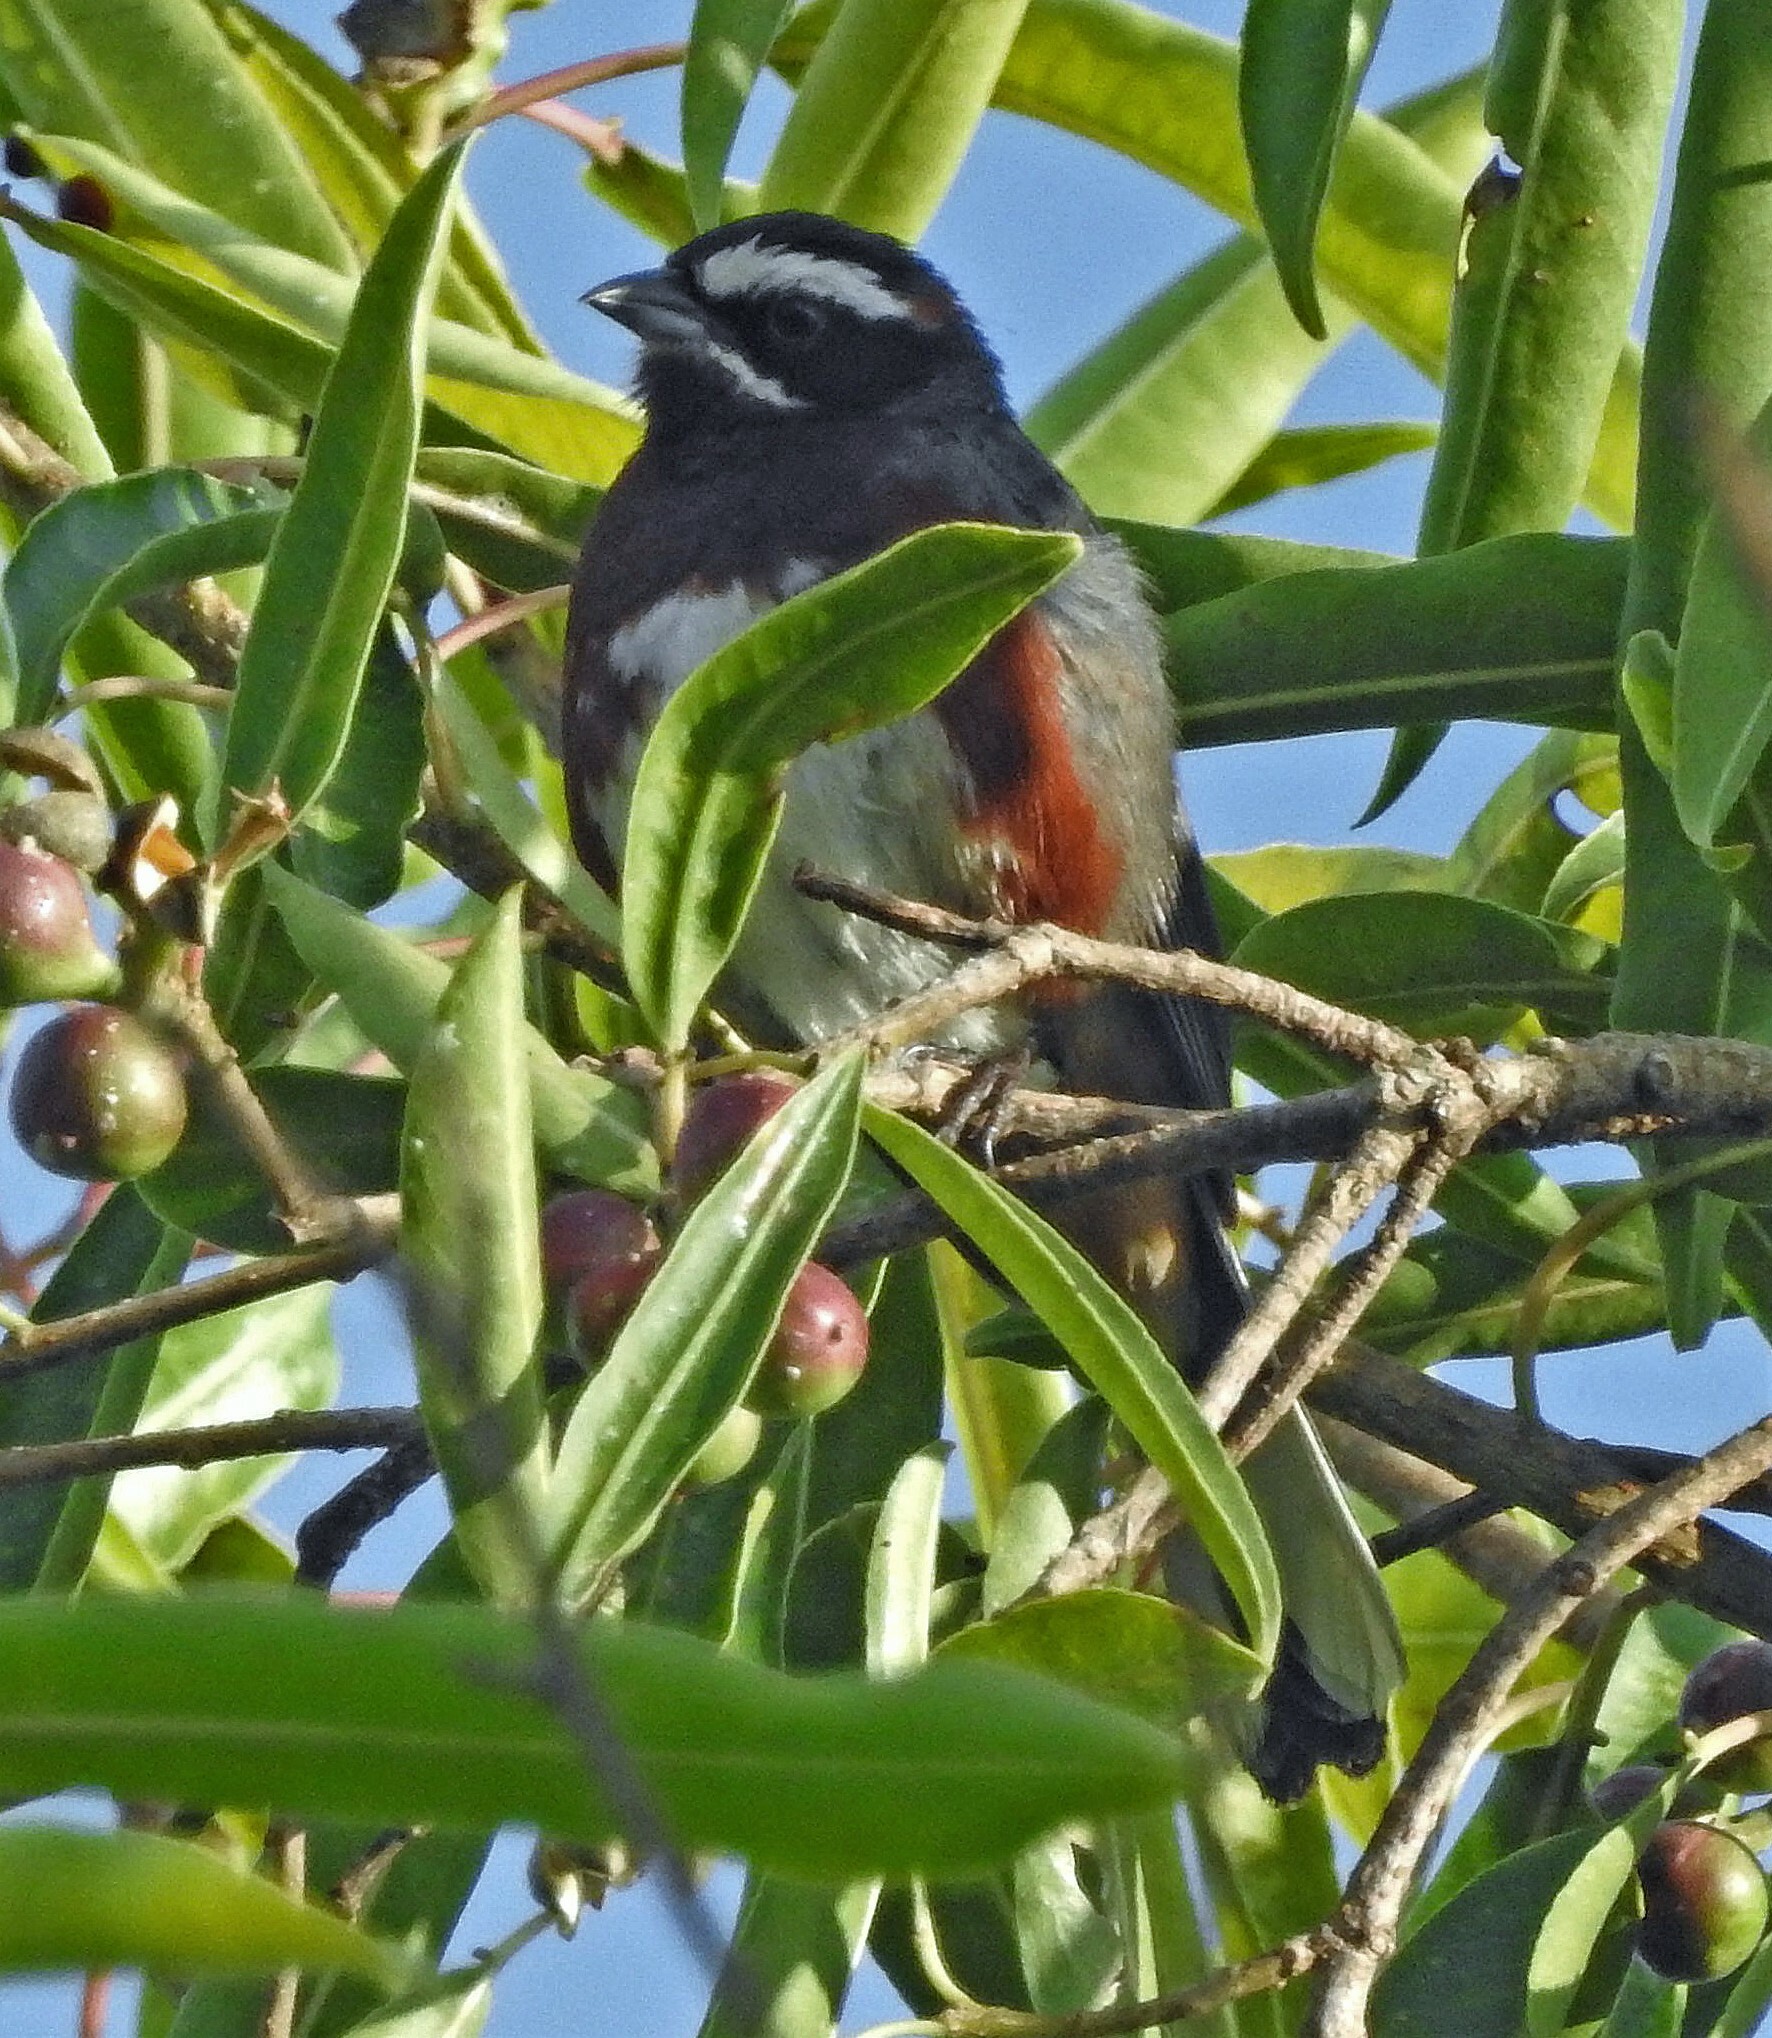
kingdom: Animalia
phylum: Chordata
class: Aves
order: Passeriformes
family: Thraupidae
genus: Poospiza
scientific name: Poospiza whitii
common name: Black-and-chestnut warbling finch
